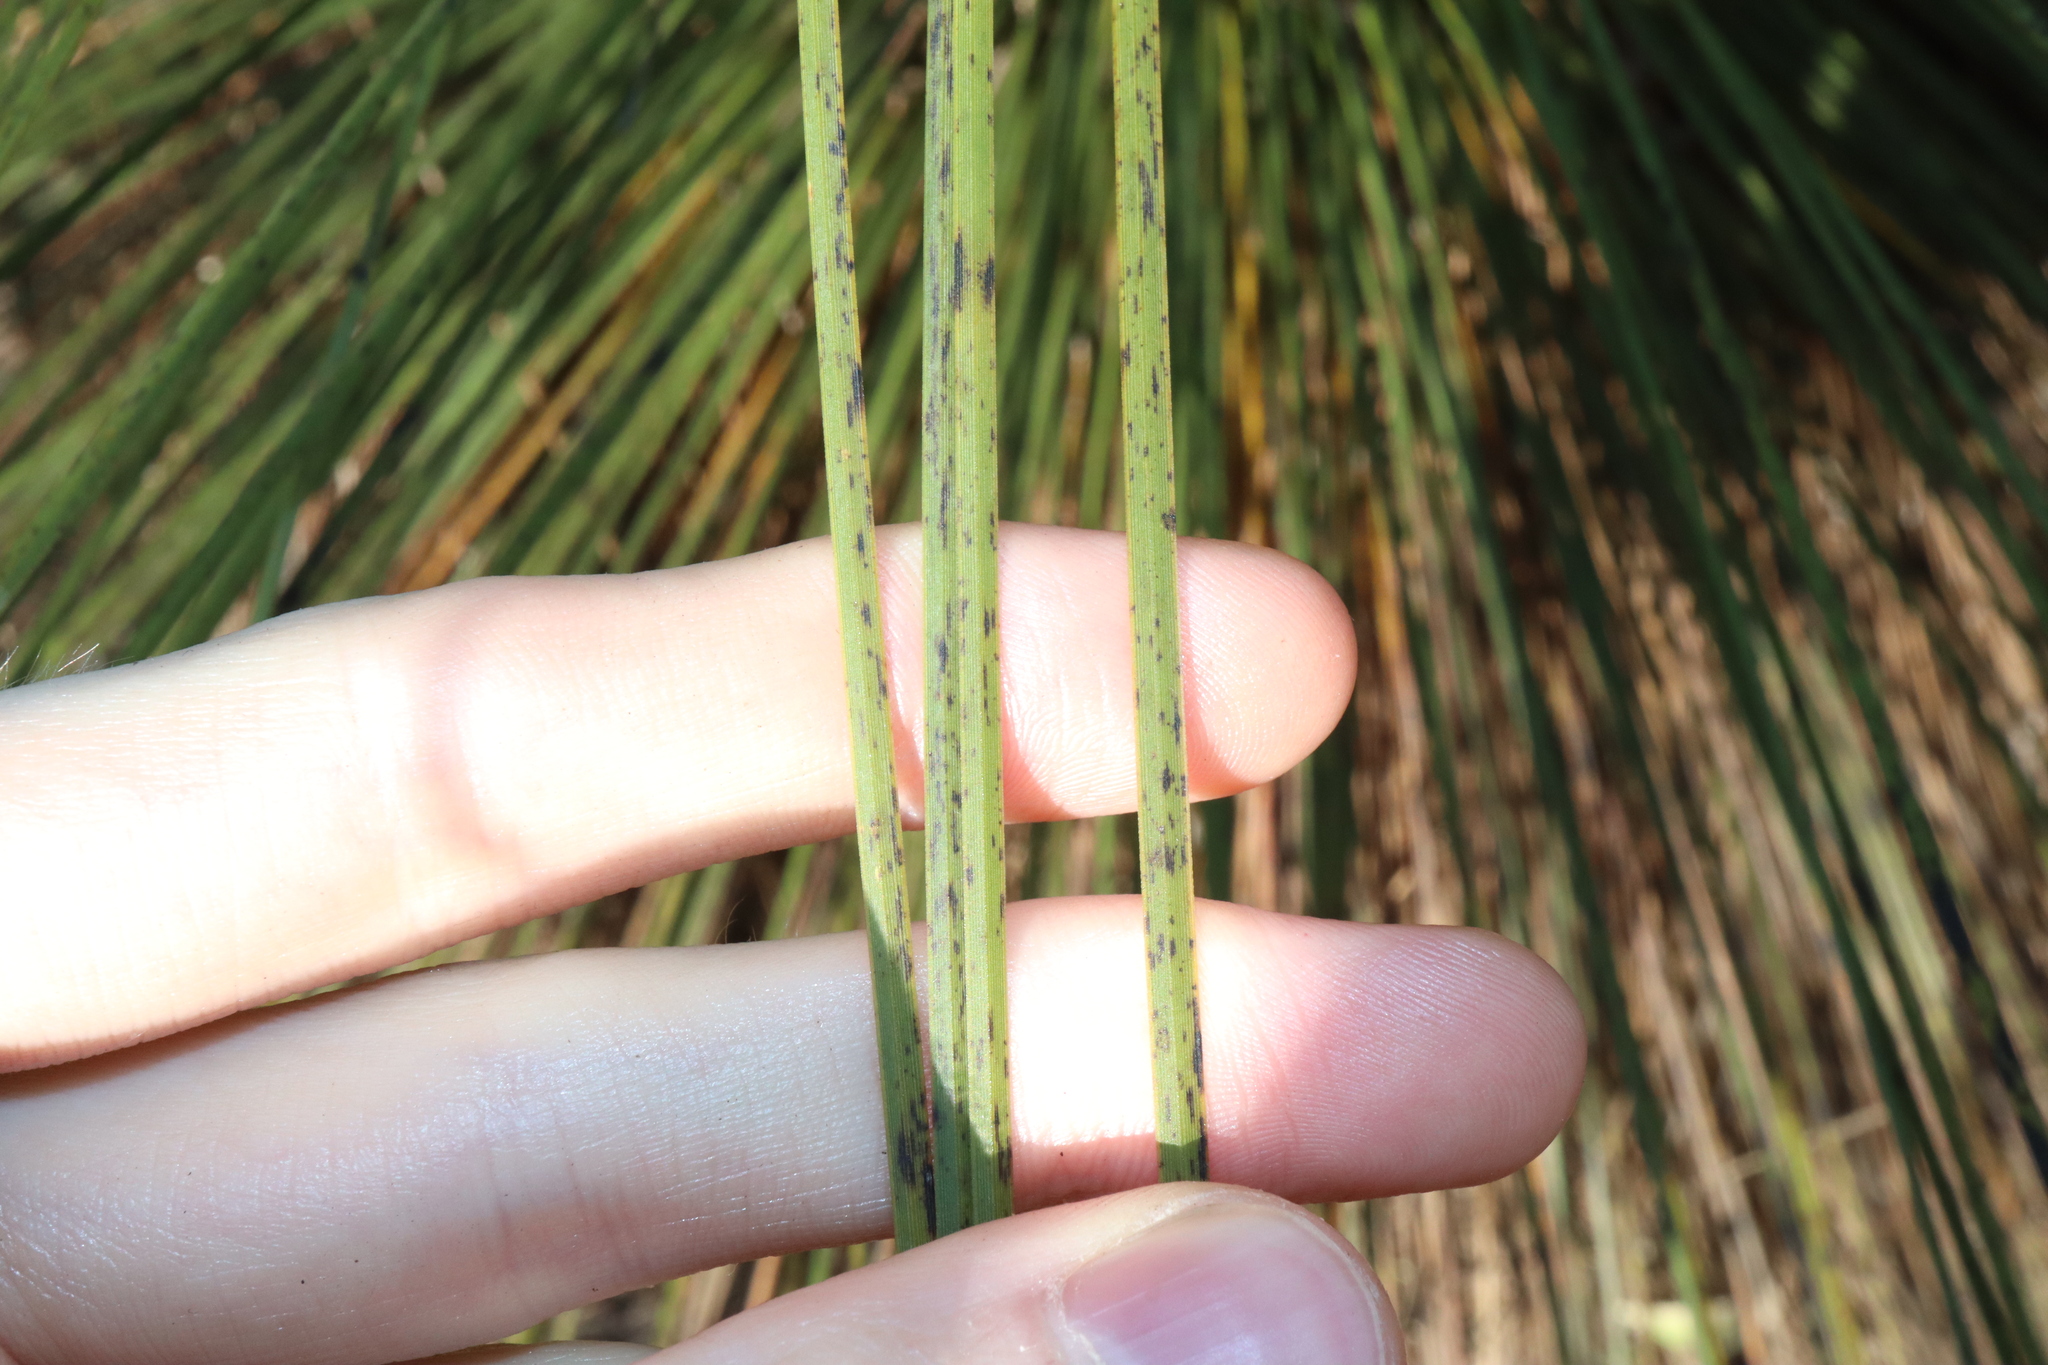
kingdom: Plantae
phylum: Tracheophyta
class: Liliopsida
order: Asparagales
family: Asphodelaceae
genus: Xanthorrhoea
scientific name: Xanthorrhoea glauca
